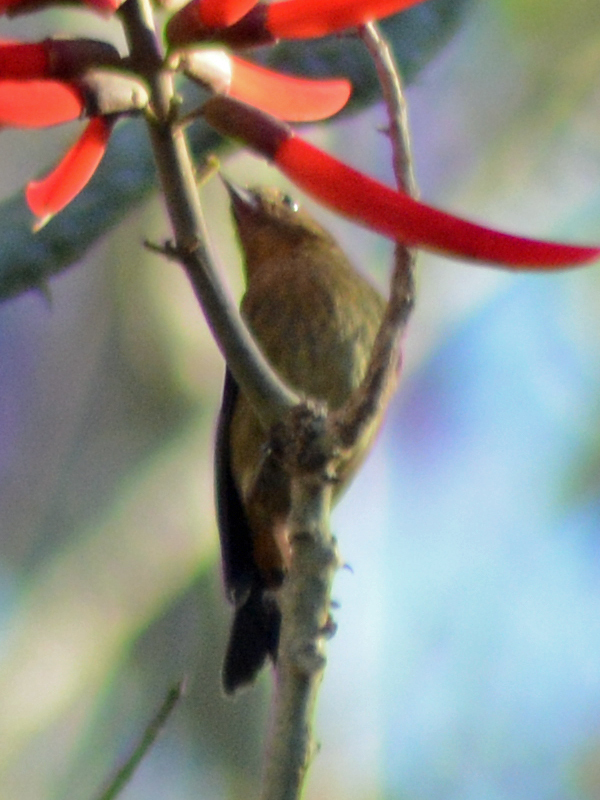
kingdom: Animalia
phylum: Chordata
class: Aves
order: Passeriformes
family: Thraupidae
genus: Diglossa
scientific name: Diglossa baritula
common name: Cinnamon-bellied flowerpiercer
